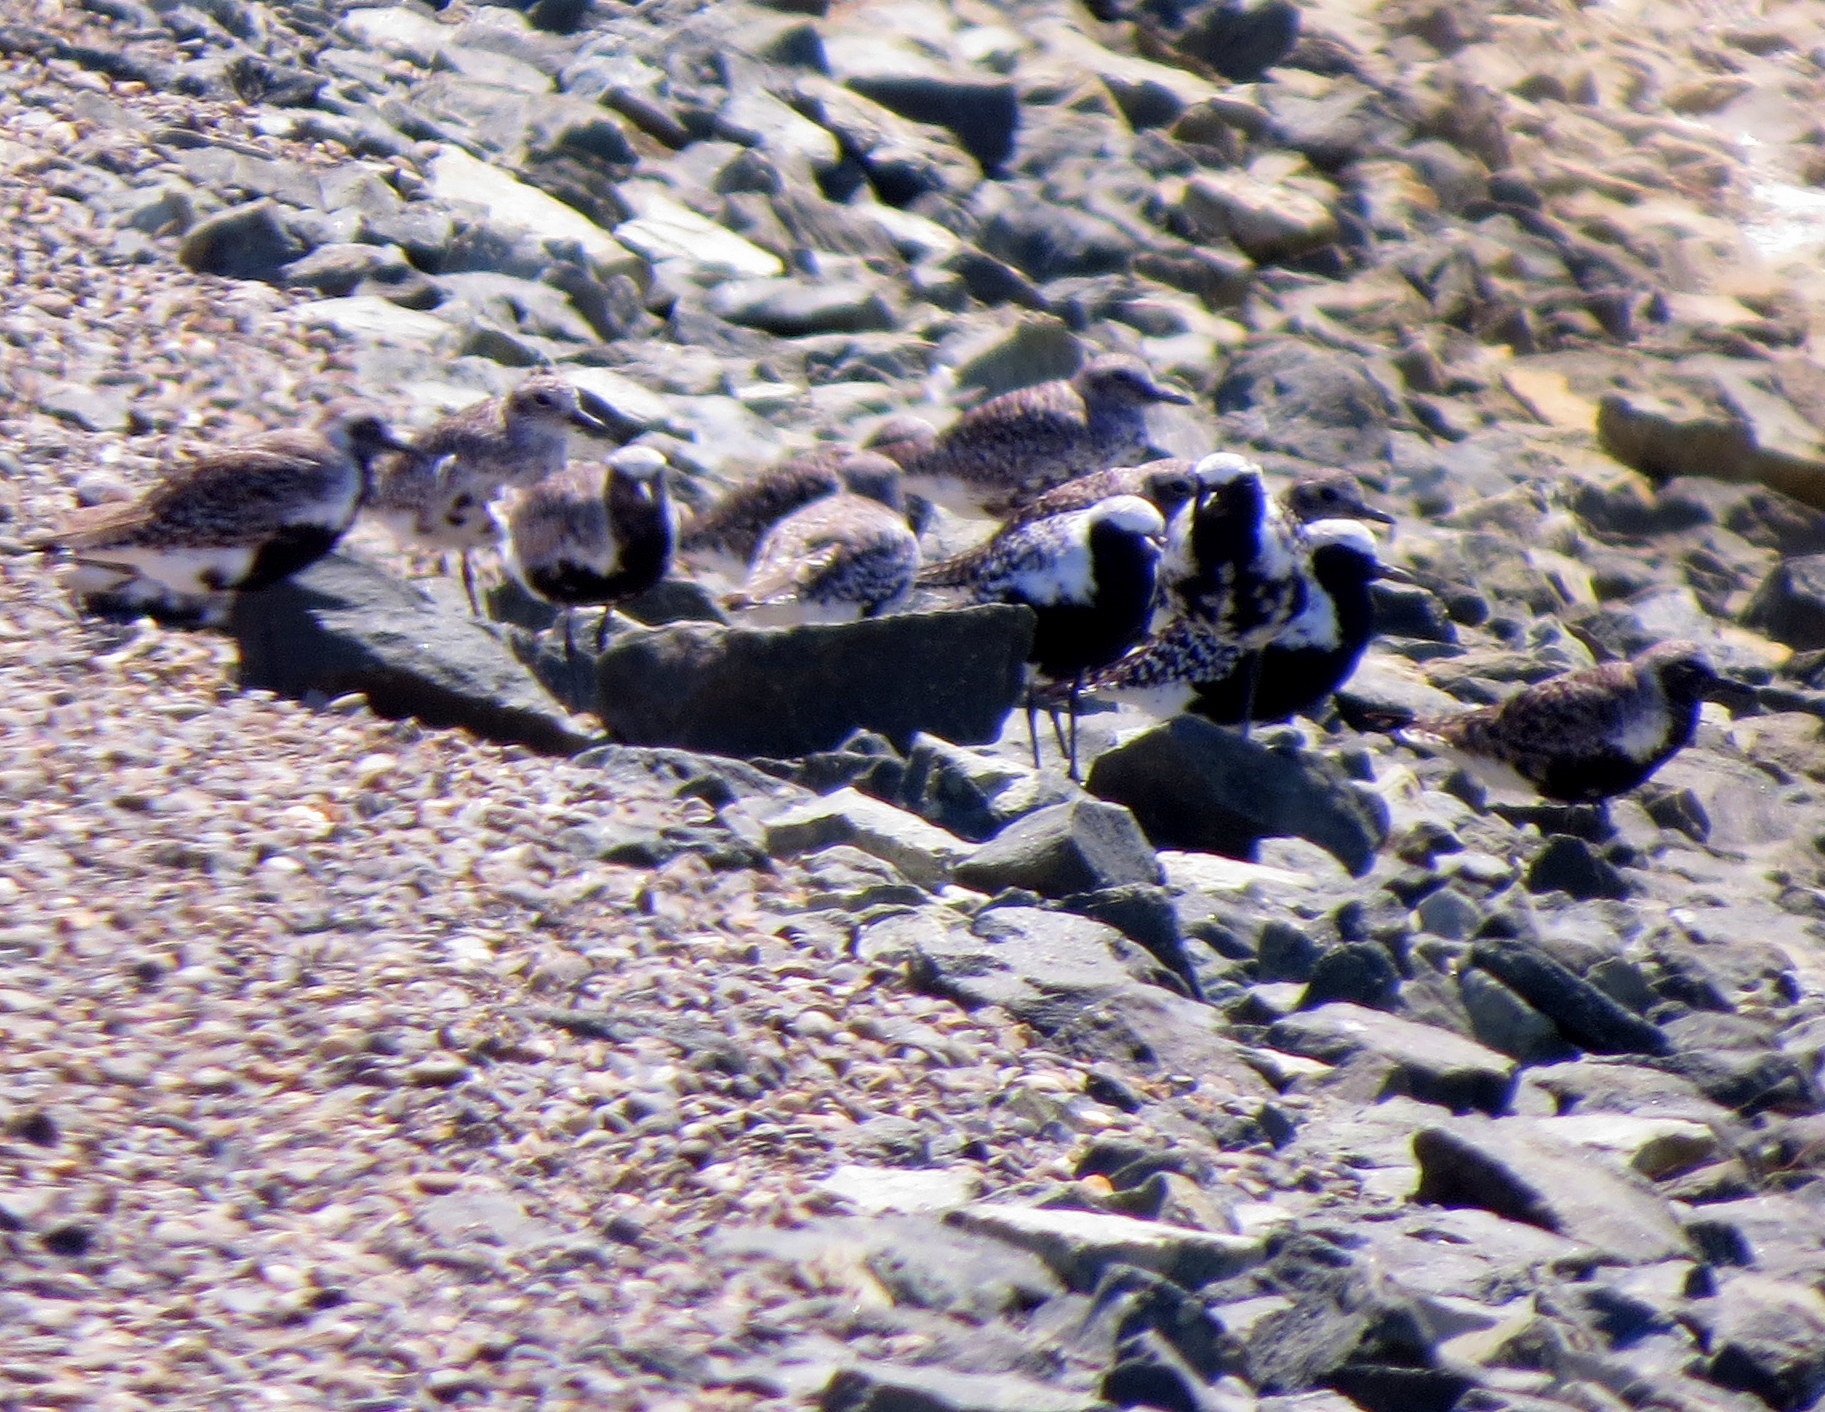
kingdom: Animalia
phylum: Chordata
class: Aves
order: Charadriiformes
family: Charadriidae
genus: Pluvialis
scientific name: Pluvialis squatarola
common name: Grey plover
